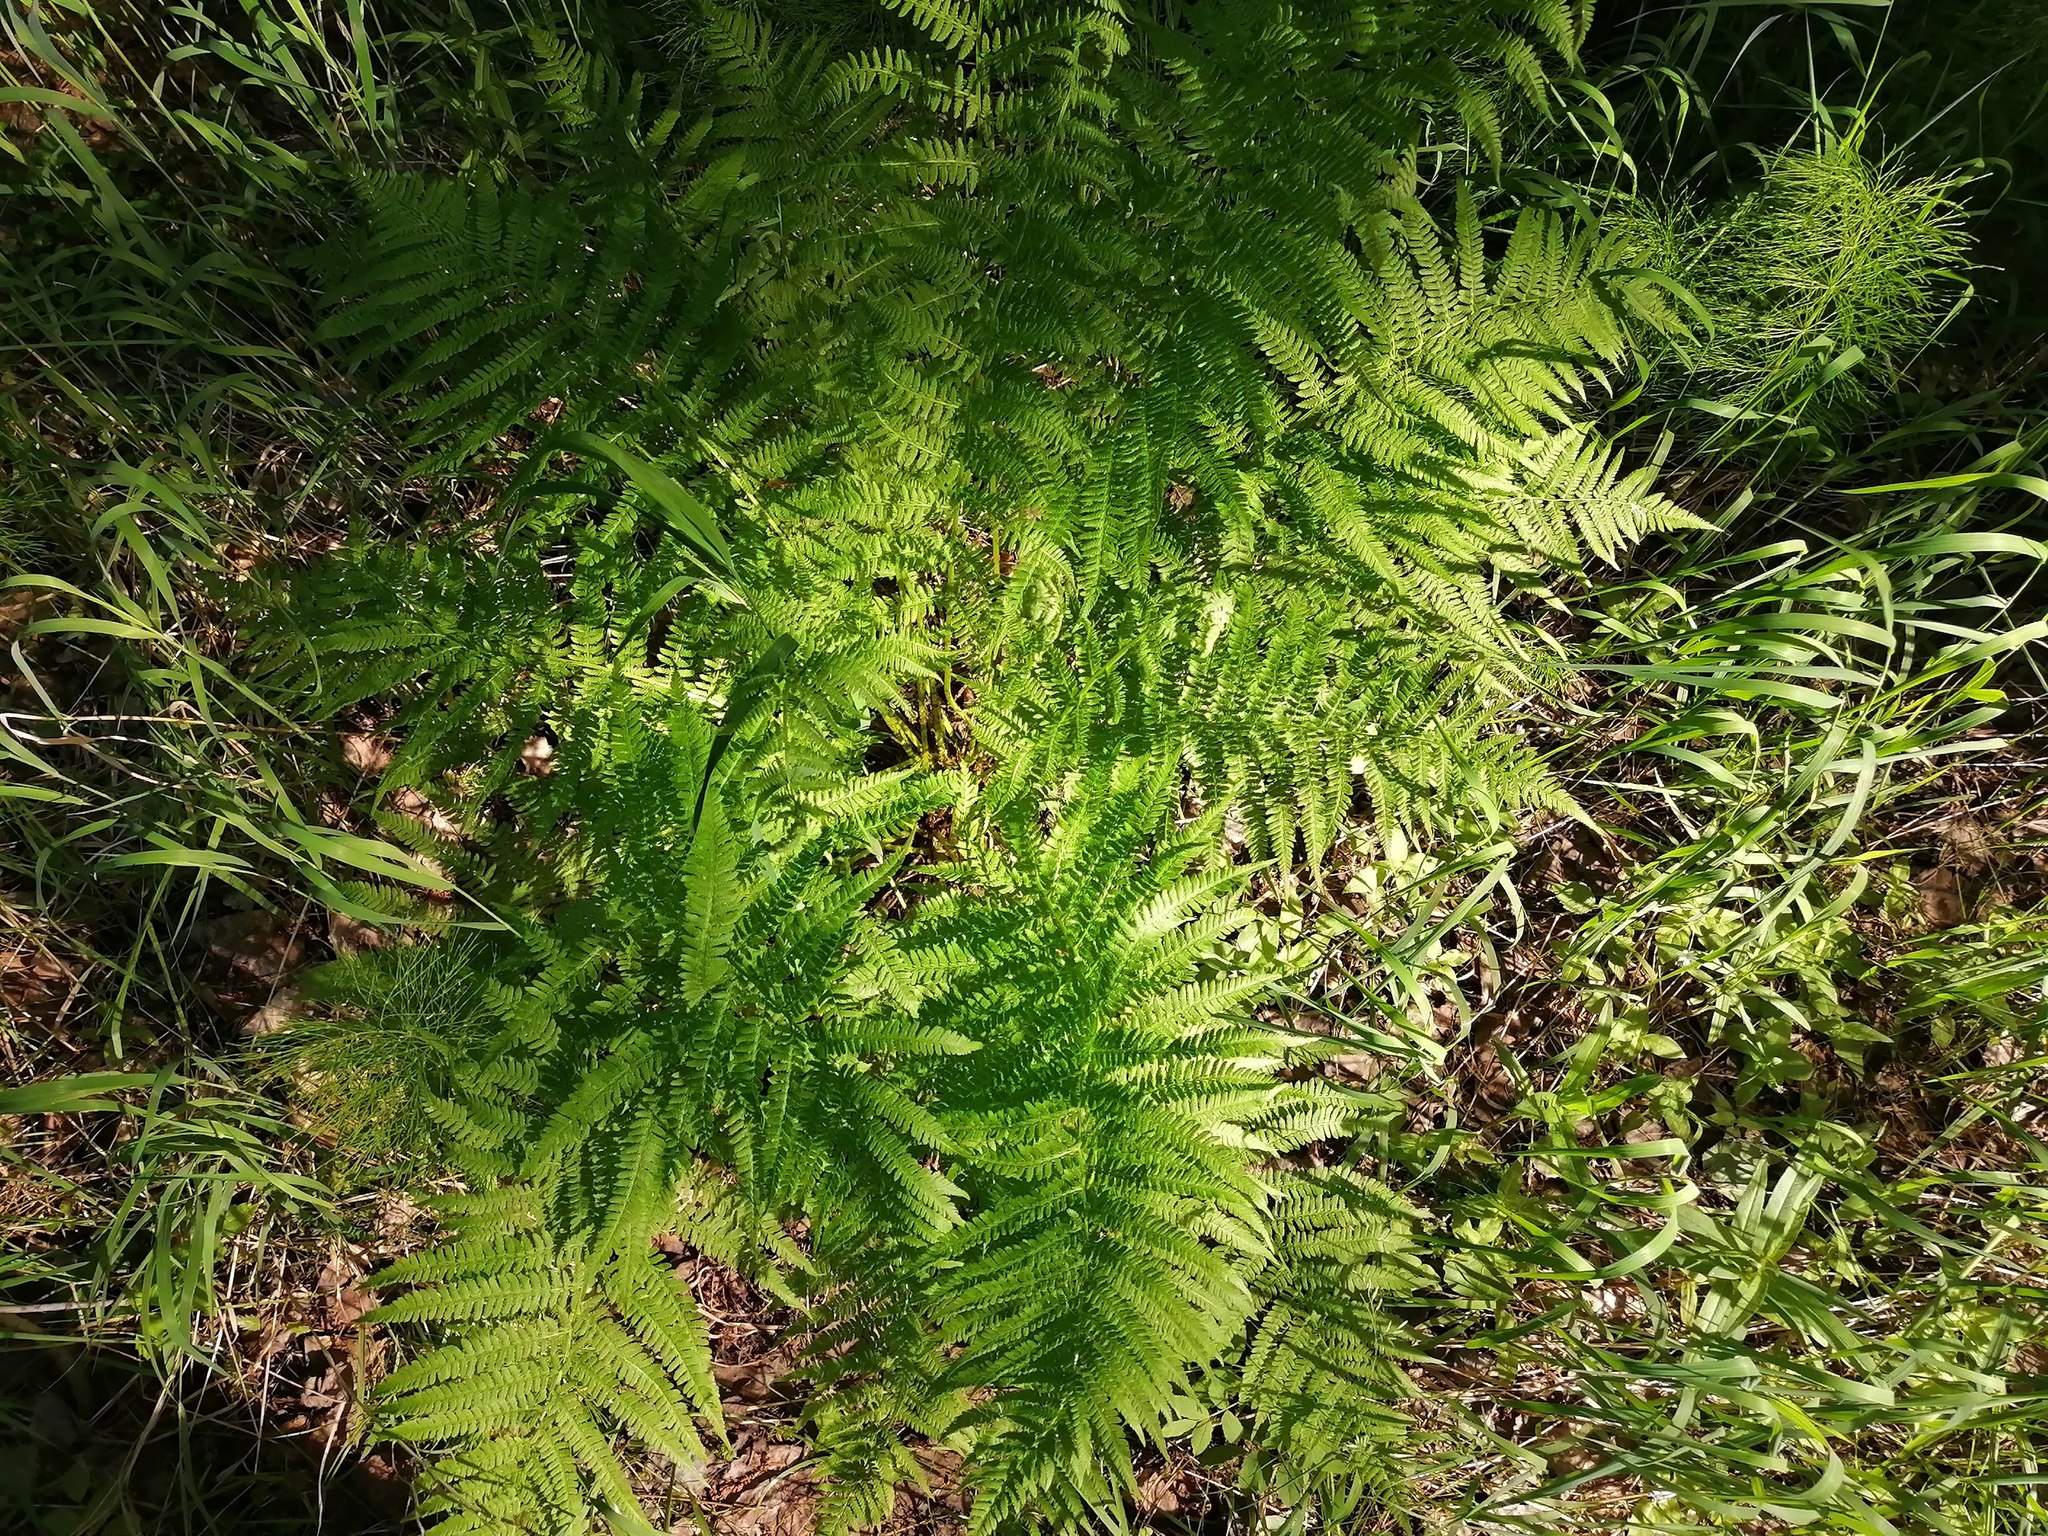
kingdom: Plantae
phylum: Tracheophyta
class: Polypodiopsida
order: Polypodiales
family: Athyriaceae
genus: Athyrium
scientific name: Athyrium filix-femina
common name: Lady fern
